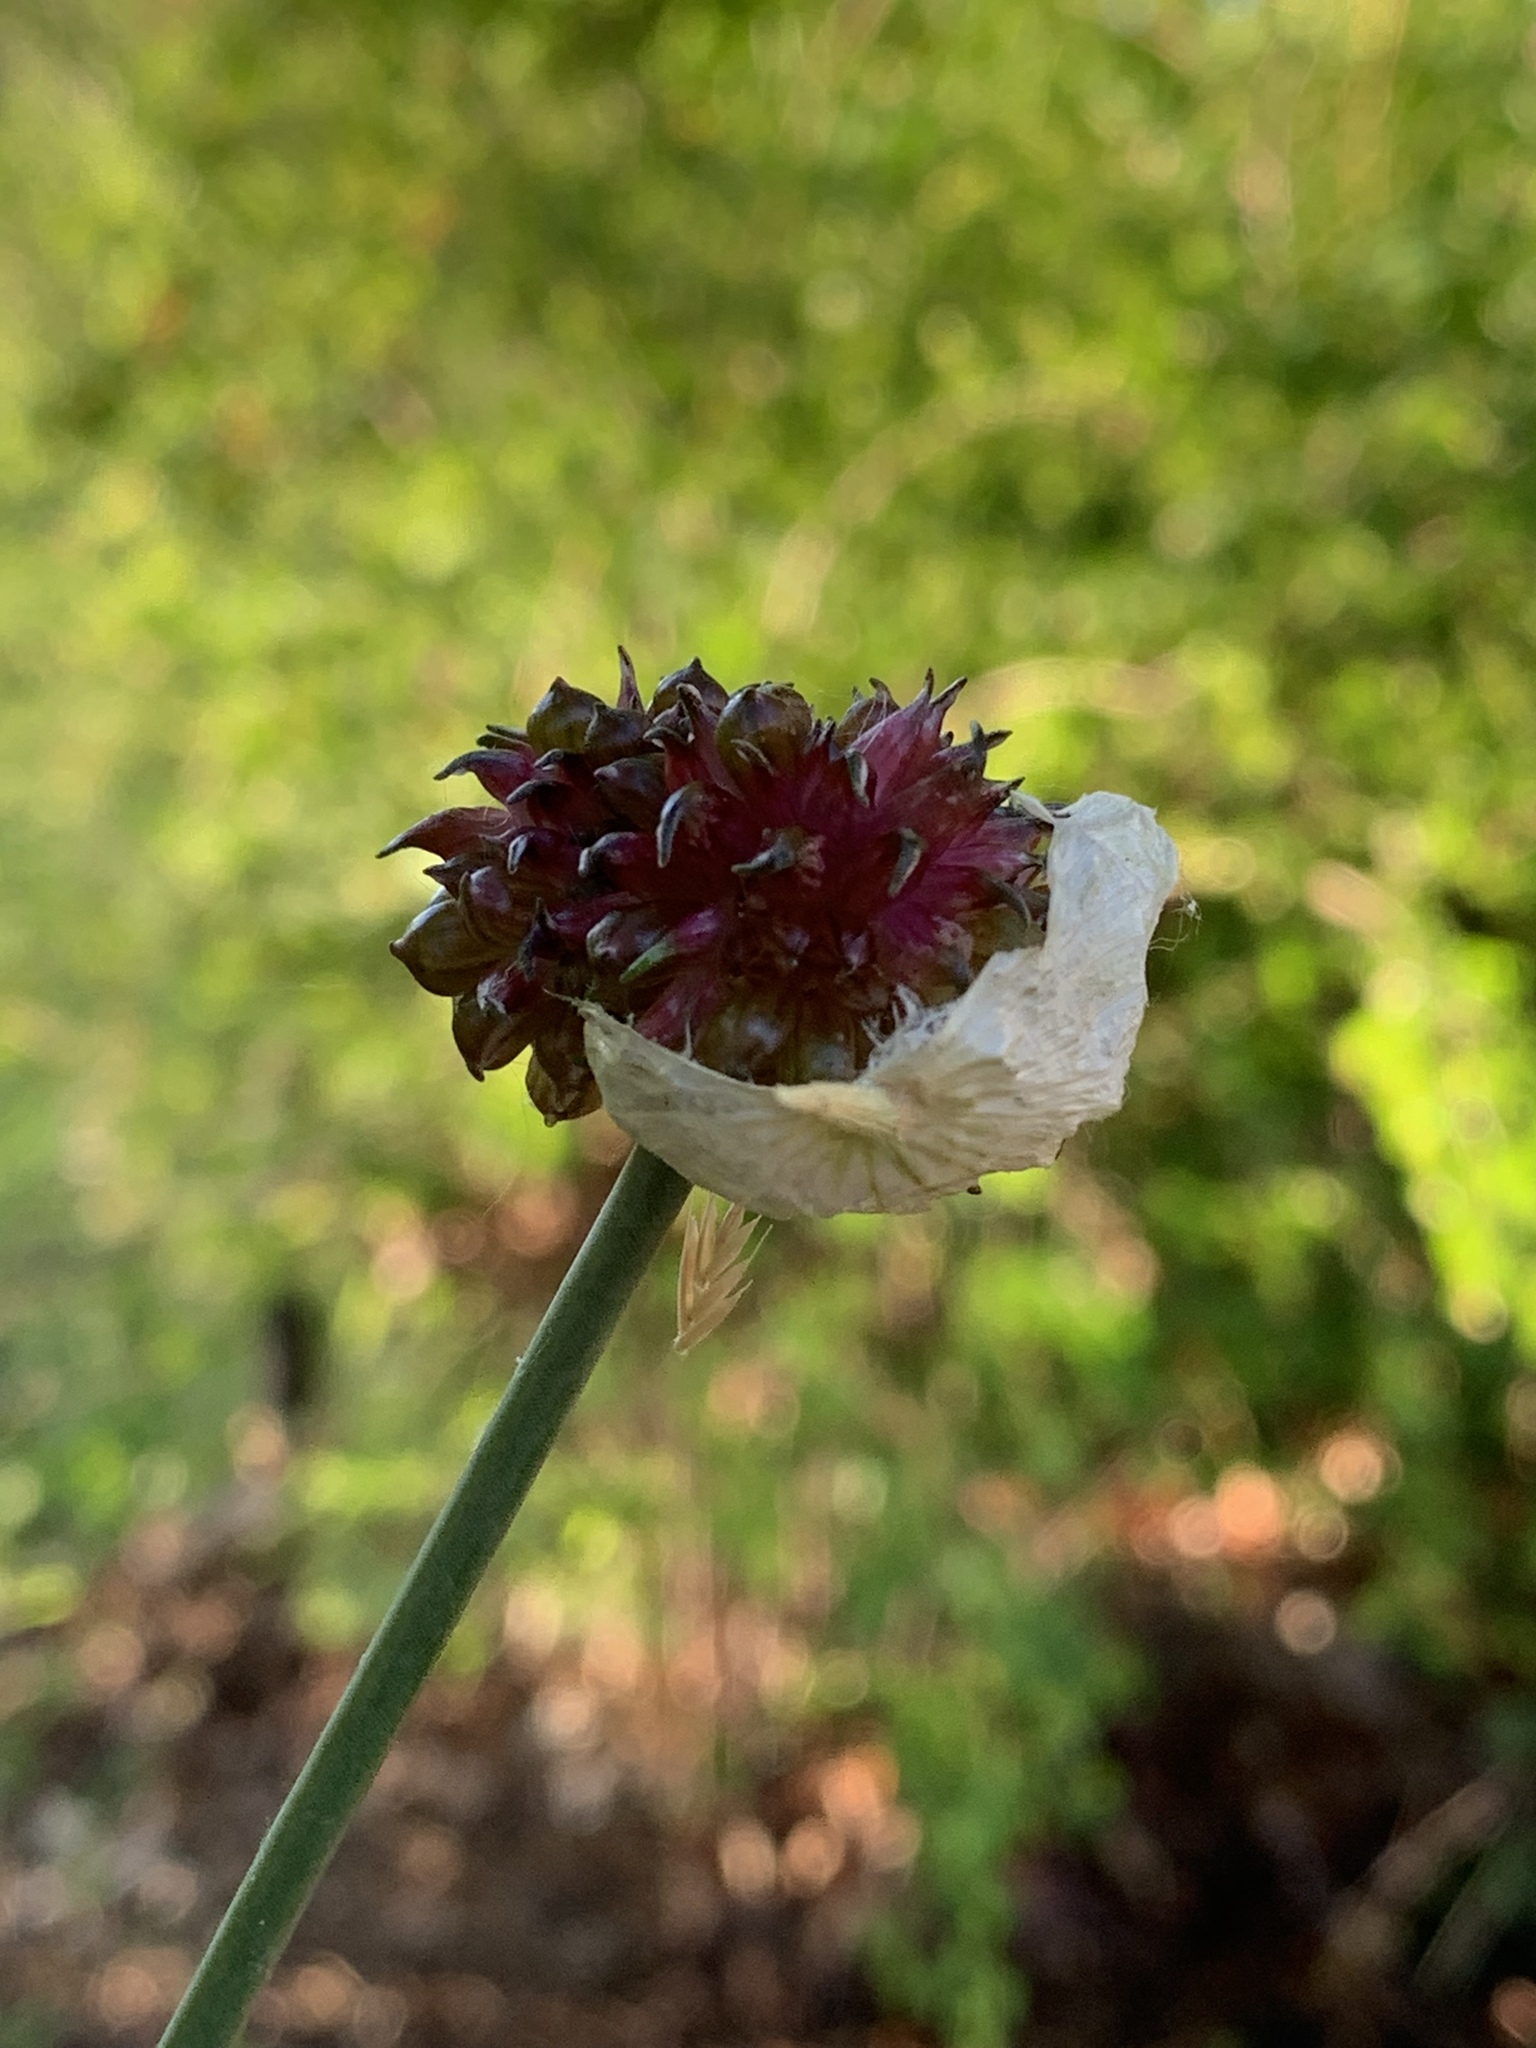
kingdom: Plantae
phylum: Tracheophyta
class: Liliopsida
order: Asparagales
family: Amaryllidaceae
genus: Allium
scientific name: Allium vineale
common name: Crow garlic
